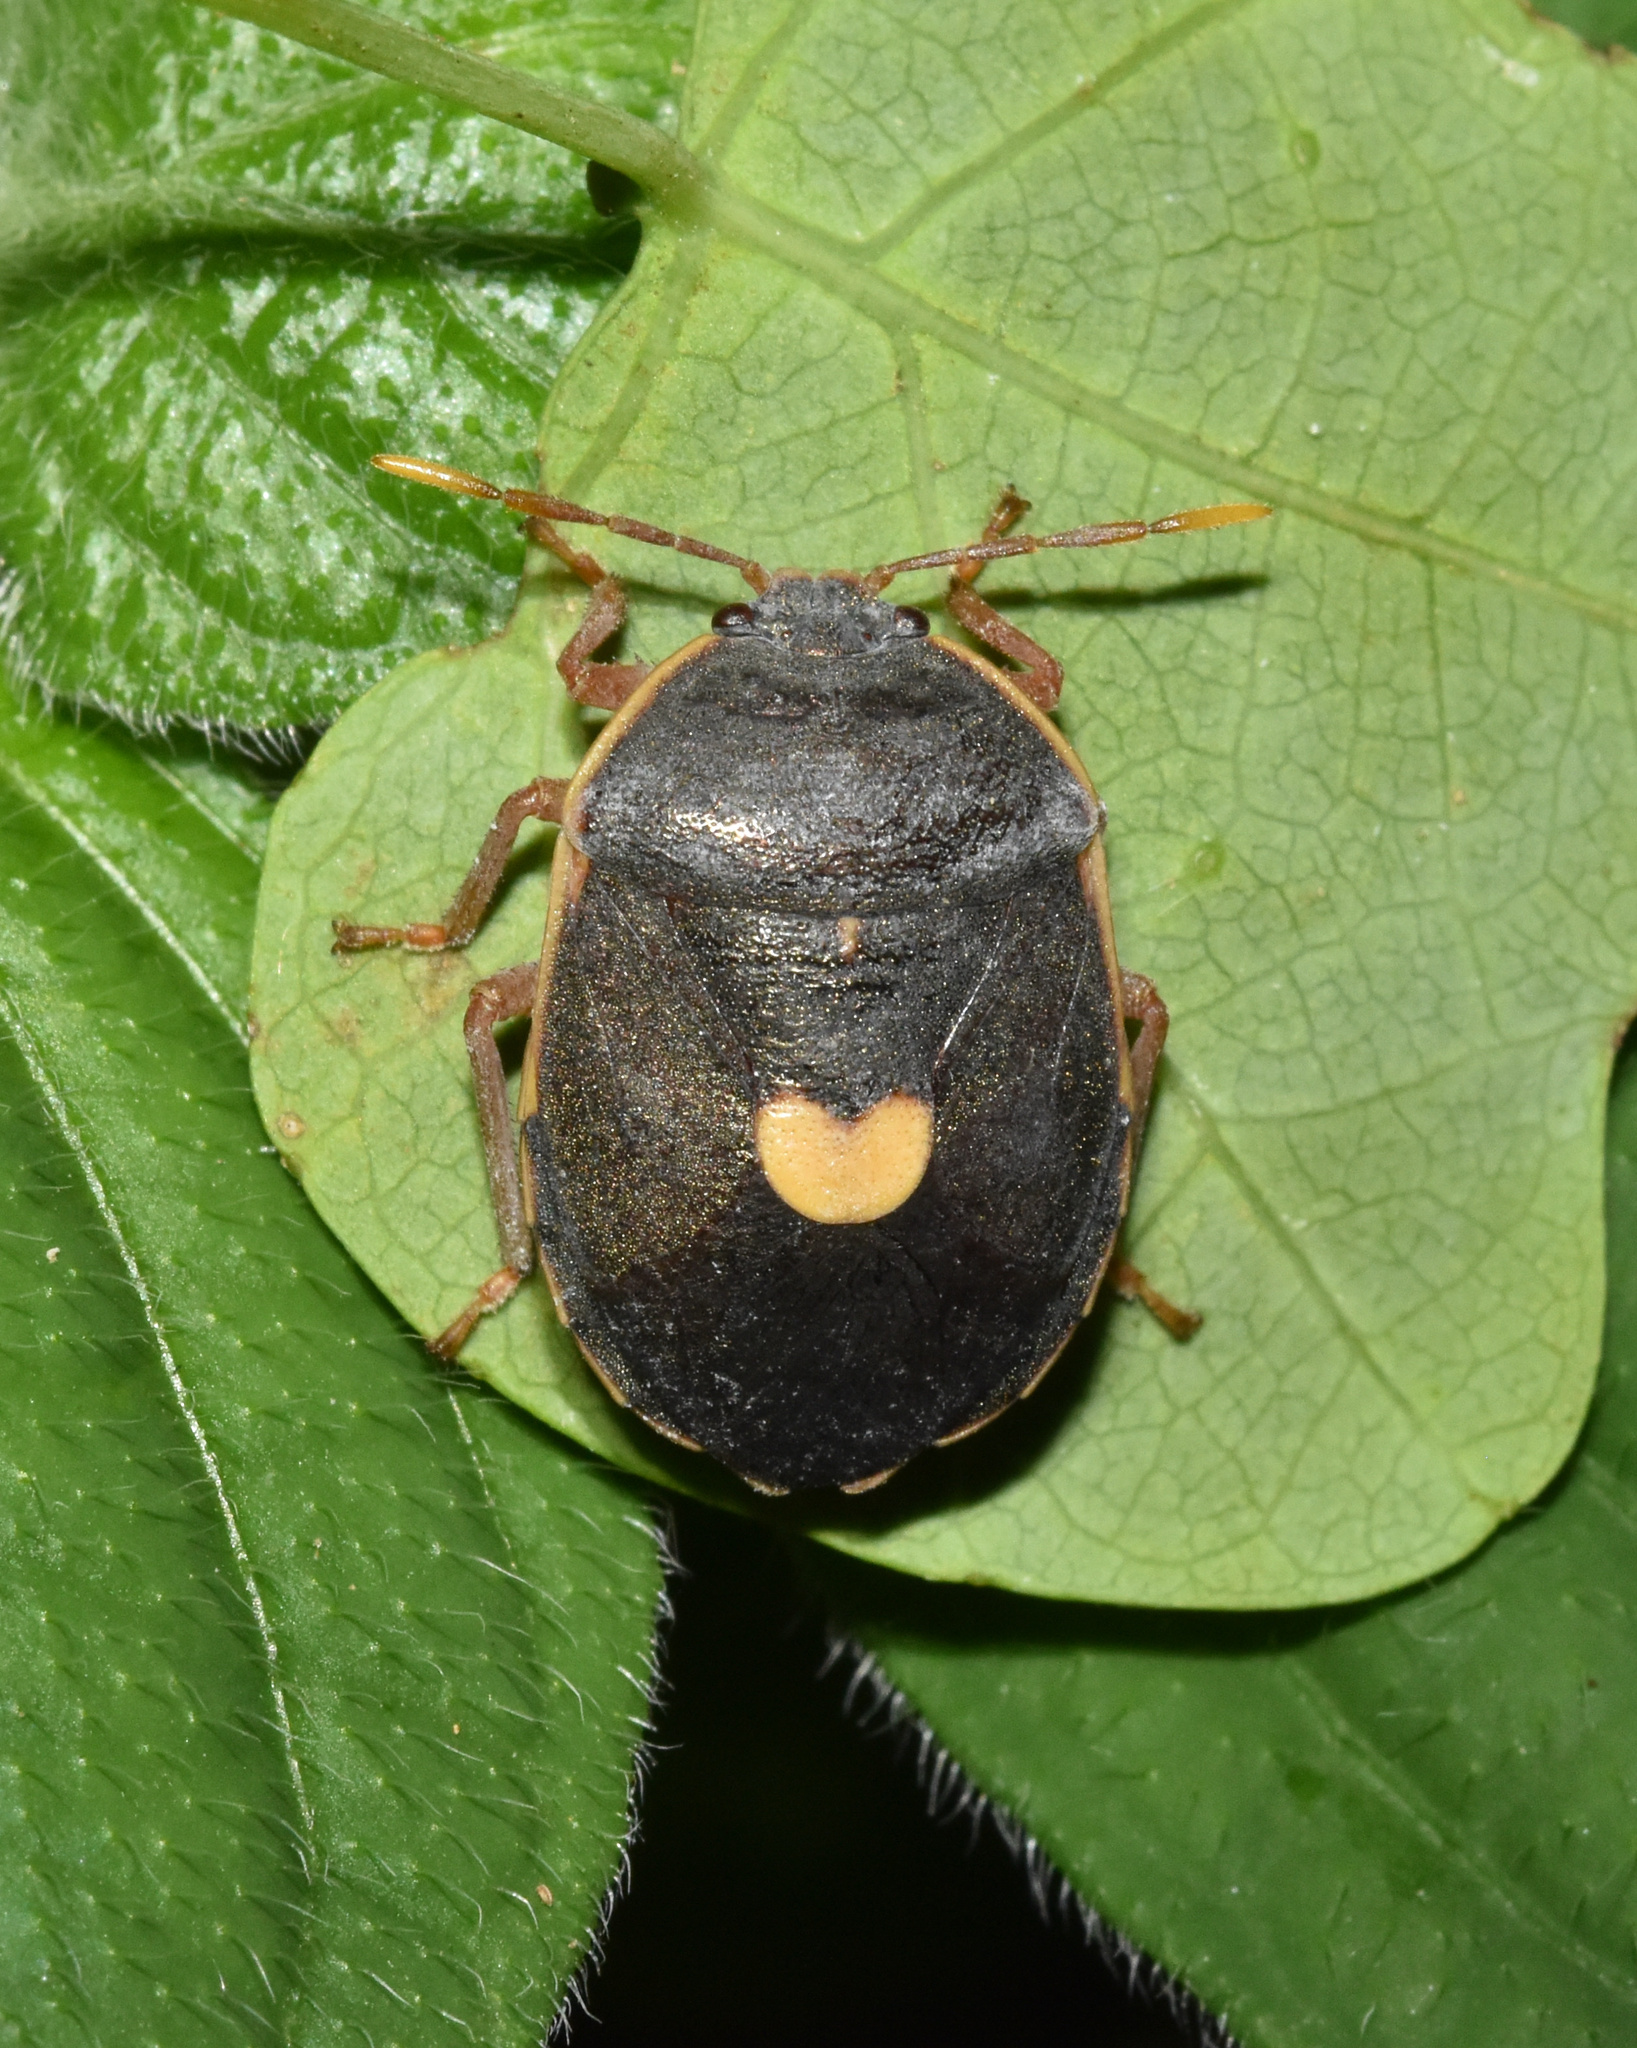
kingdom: Animalia
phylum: Arthropoda
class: Insecta
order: Hemiptera
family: Dinidoridae
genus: Colpoproctus
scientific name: Colpoproctus pullus
